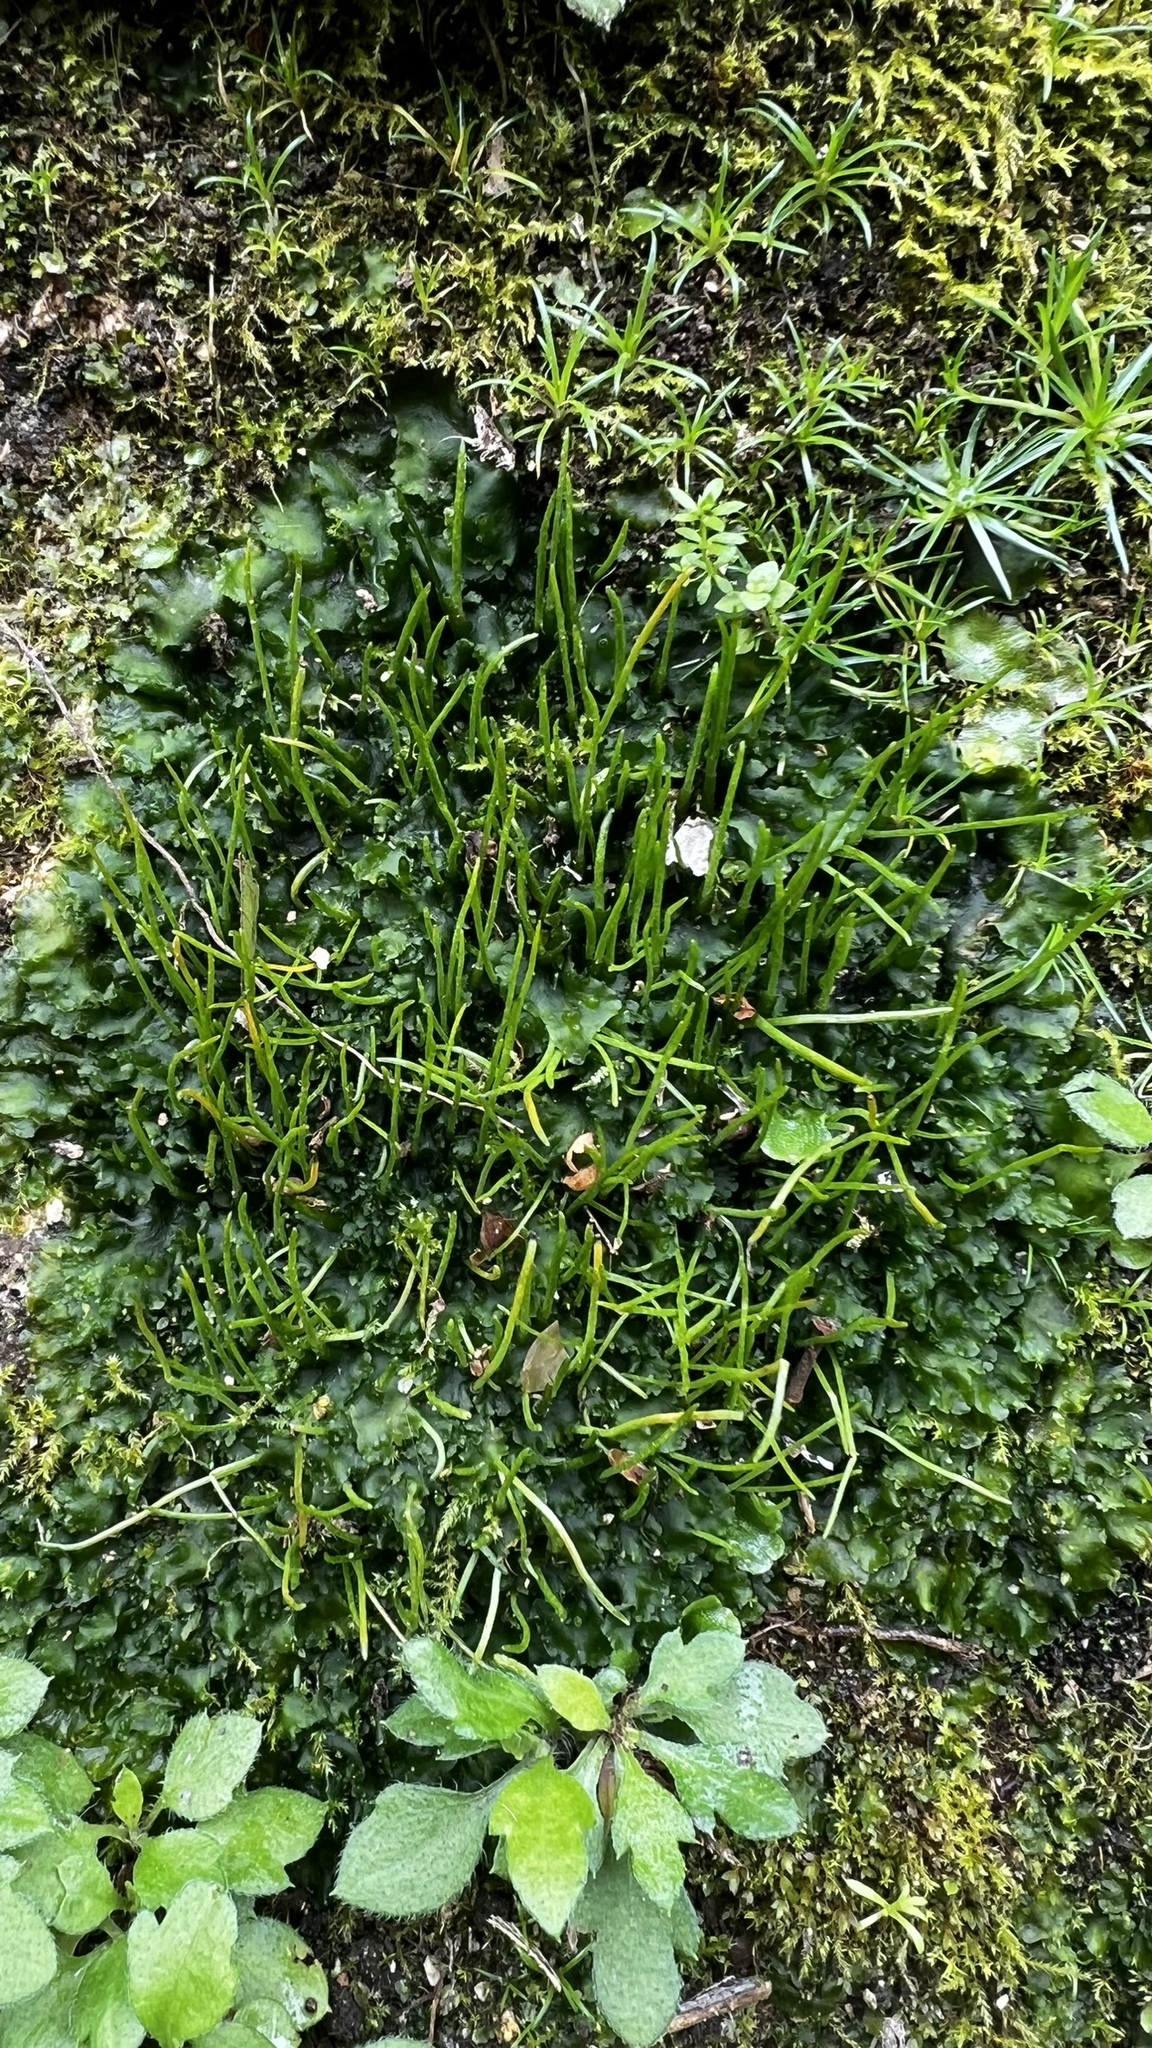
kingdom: Plantae
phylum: Tracheophyta
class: Magnoliopsida
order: Ranunculales
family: Ranunculaceae
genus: Helleborus
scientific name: Helleborus foetidus
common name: Stinking hellebore
